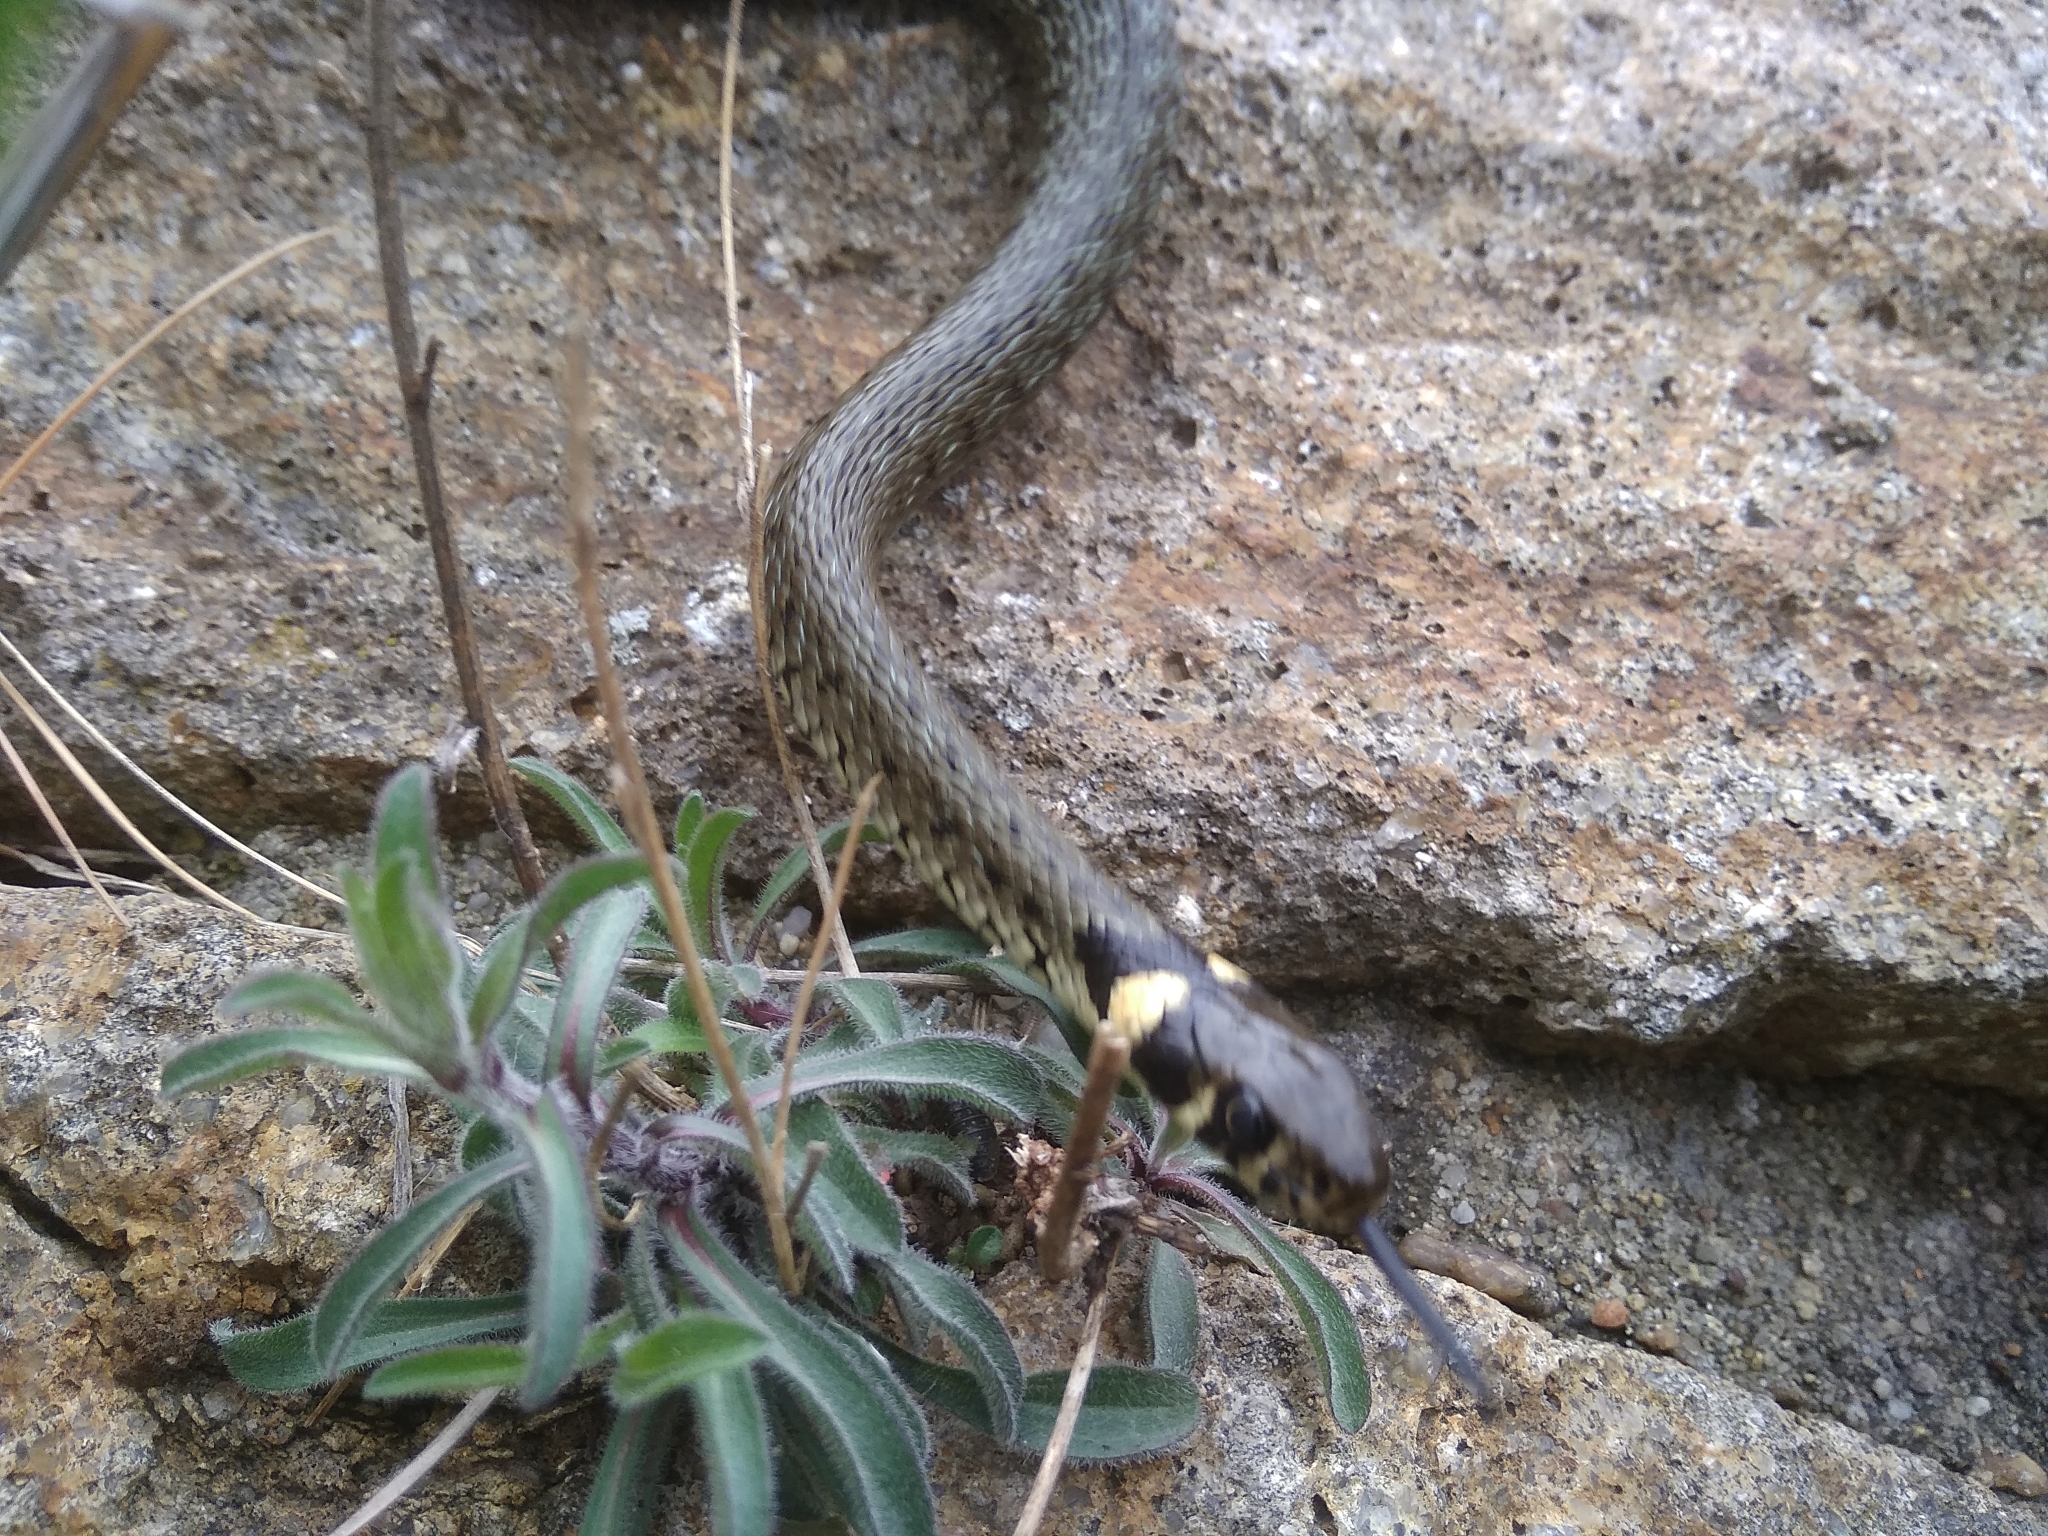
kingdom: Animalia
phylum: Chordata
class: Squamata
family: Colubridae
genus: Natrix
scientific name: Natrix natrix
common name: Grass snake
